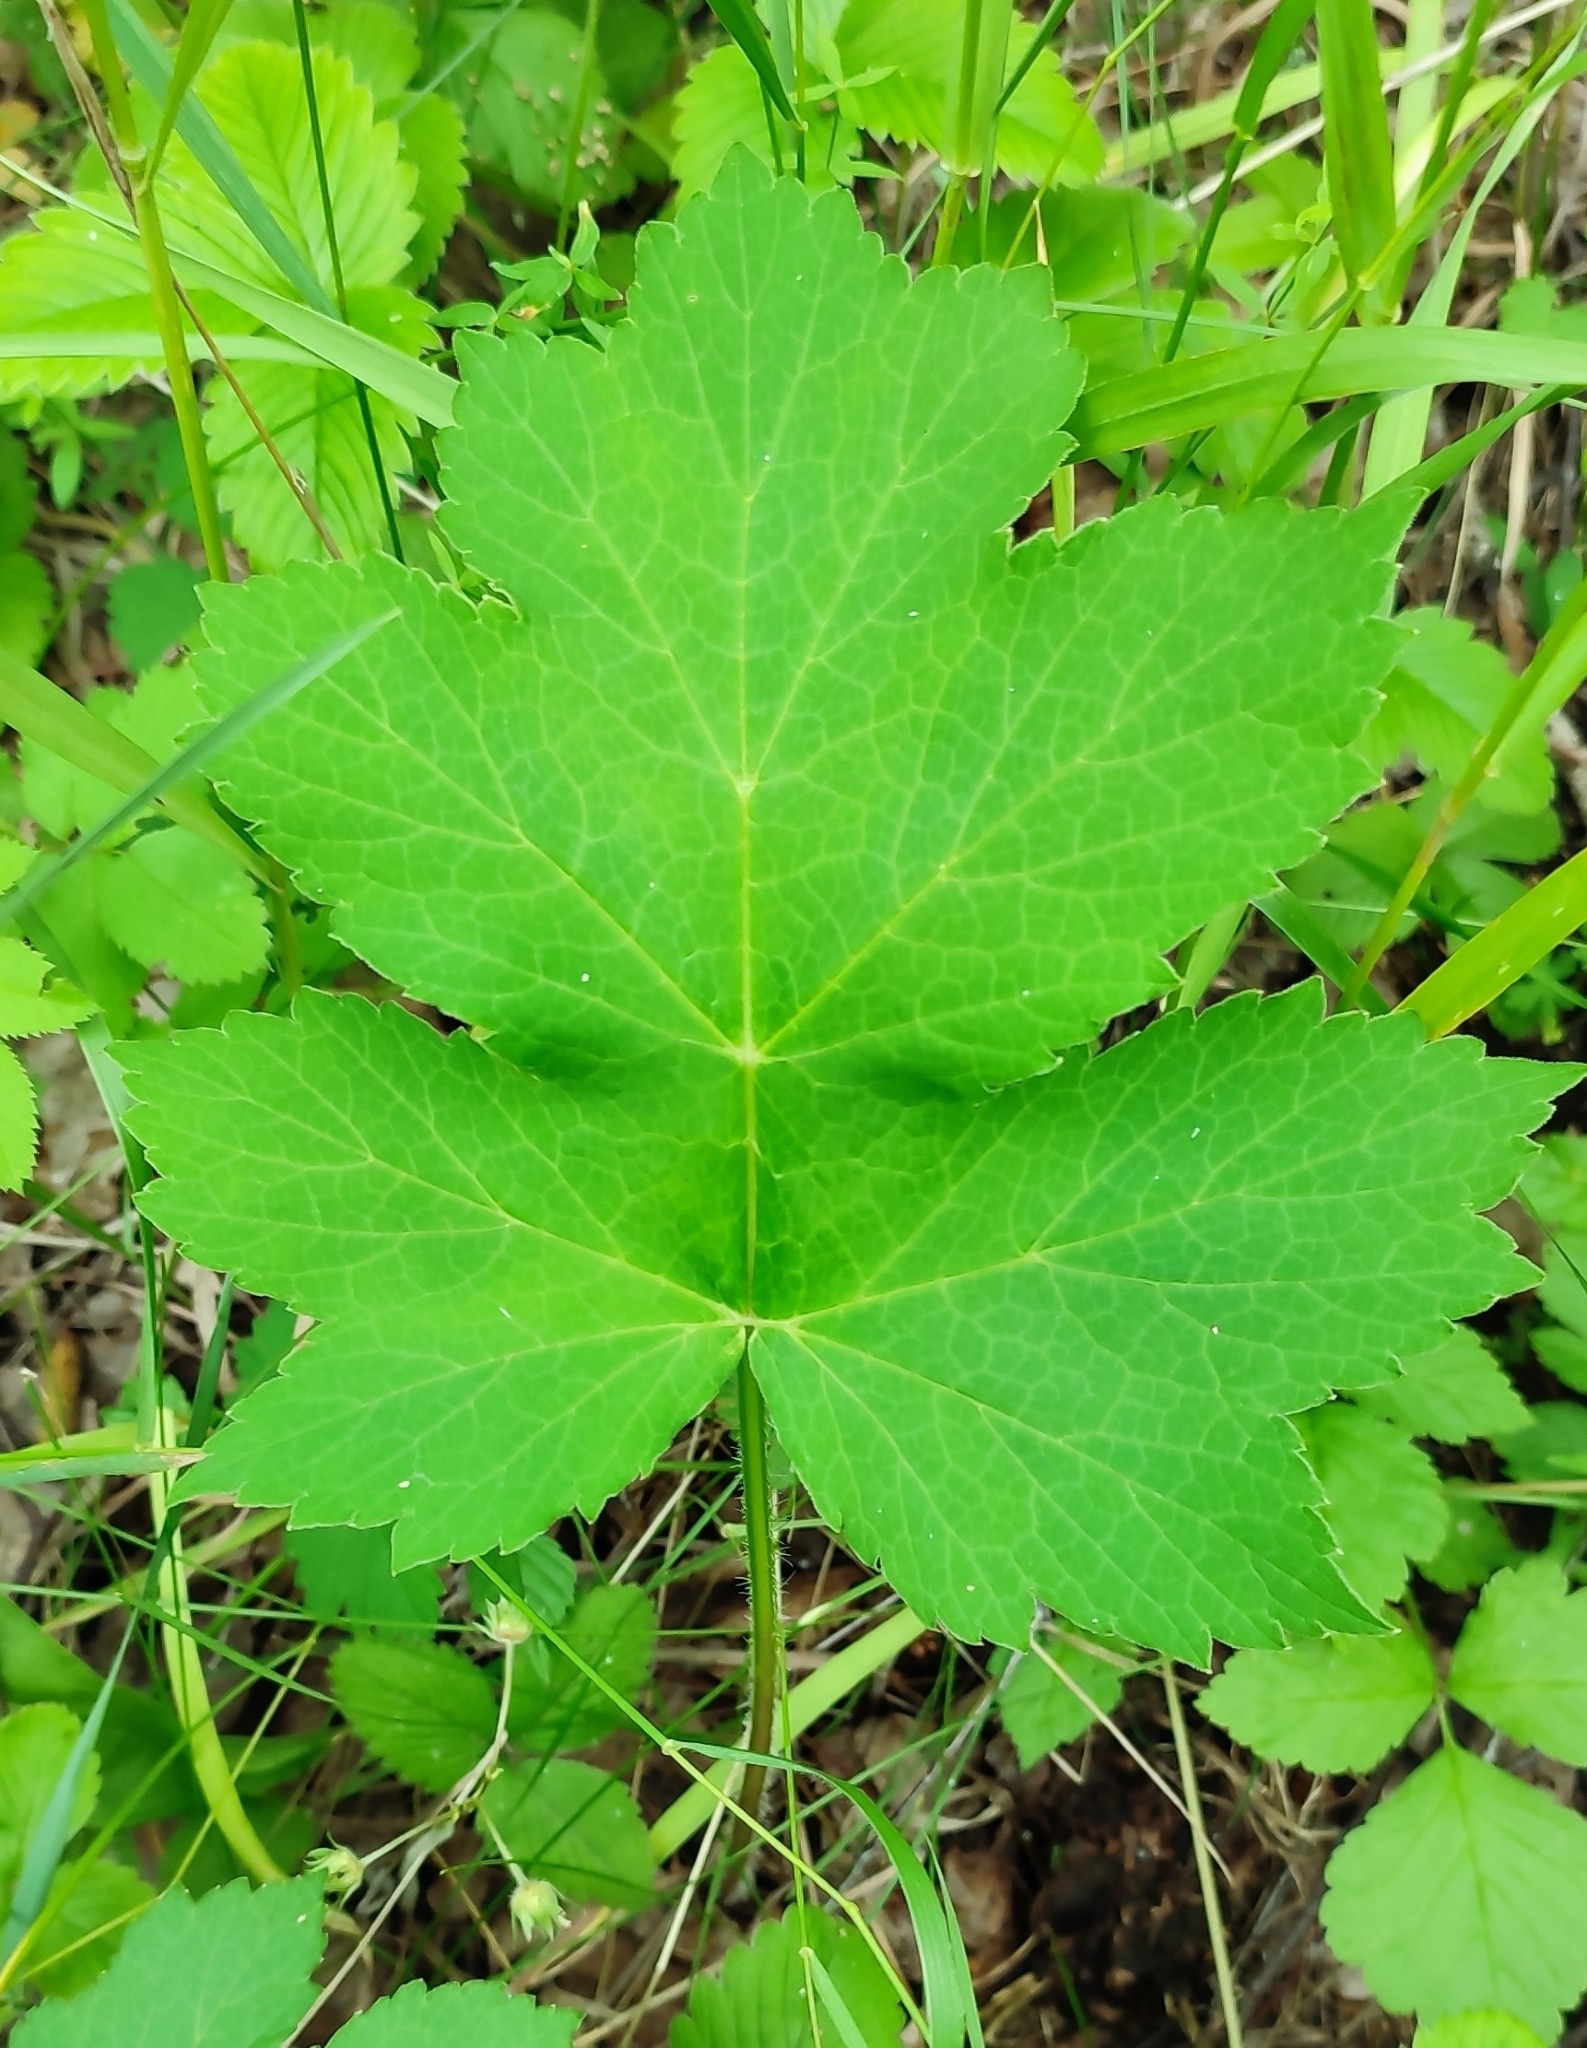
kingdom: Plantae
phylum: Tracheophyta
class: Magnoliopsida
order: Apiales
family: Apiaceae
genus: Heracleum
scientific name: Heracleum sphondylium
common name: Hogweed
